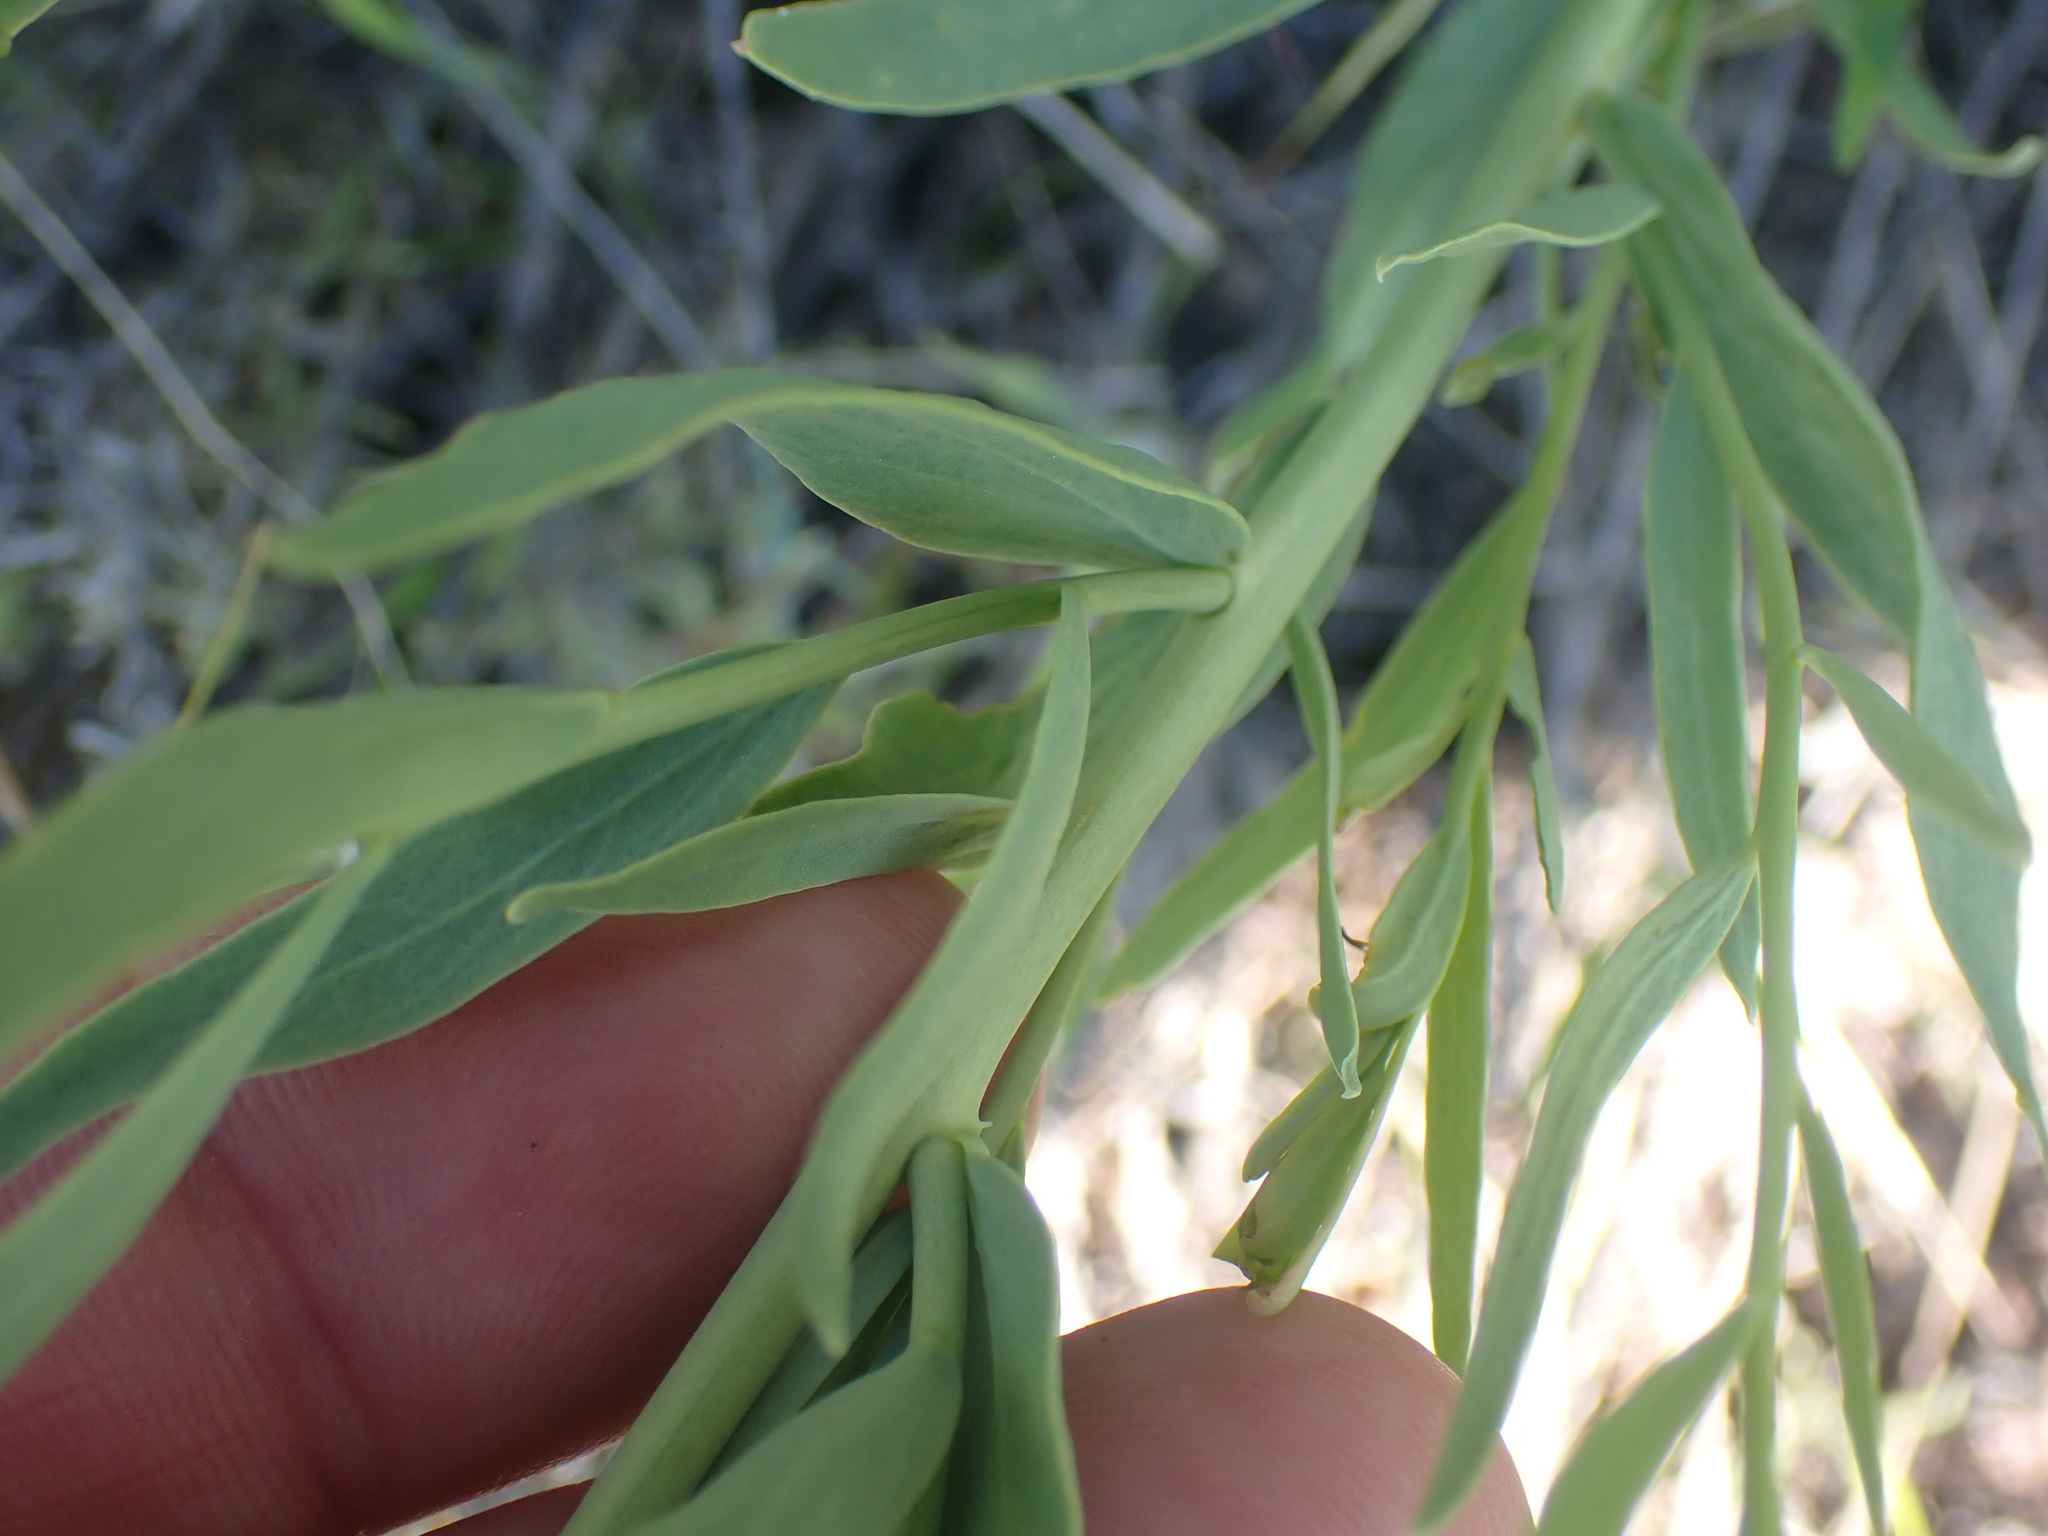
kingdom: Plantae
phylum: Tracheophyta
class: Magnoliopsida
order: Santalales
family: Comandraceae
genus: Comandra
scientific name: Comandra umbellata
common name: Bastard toadflax
